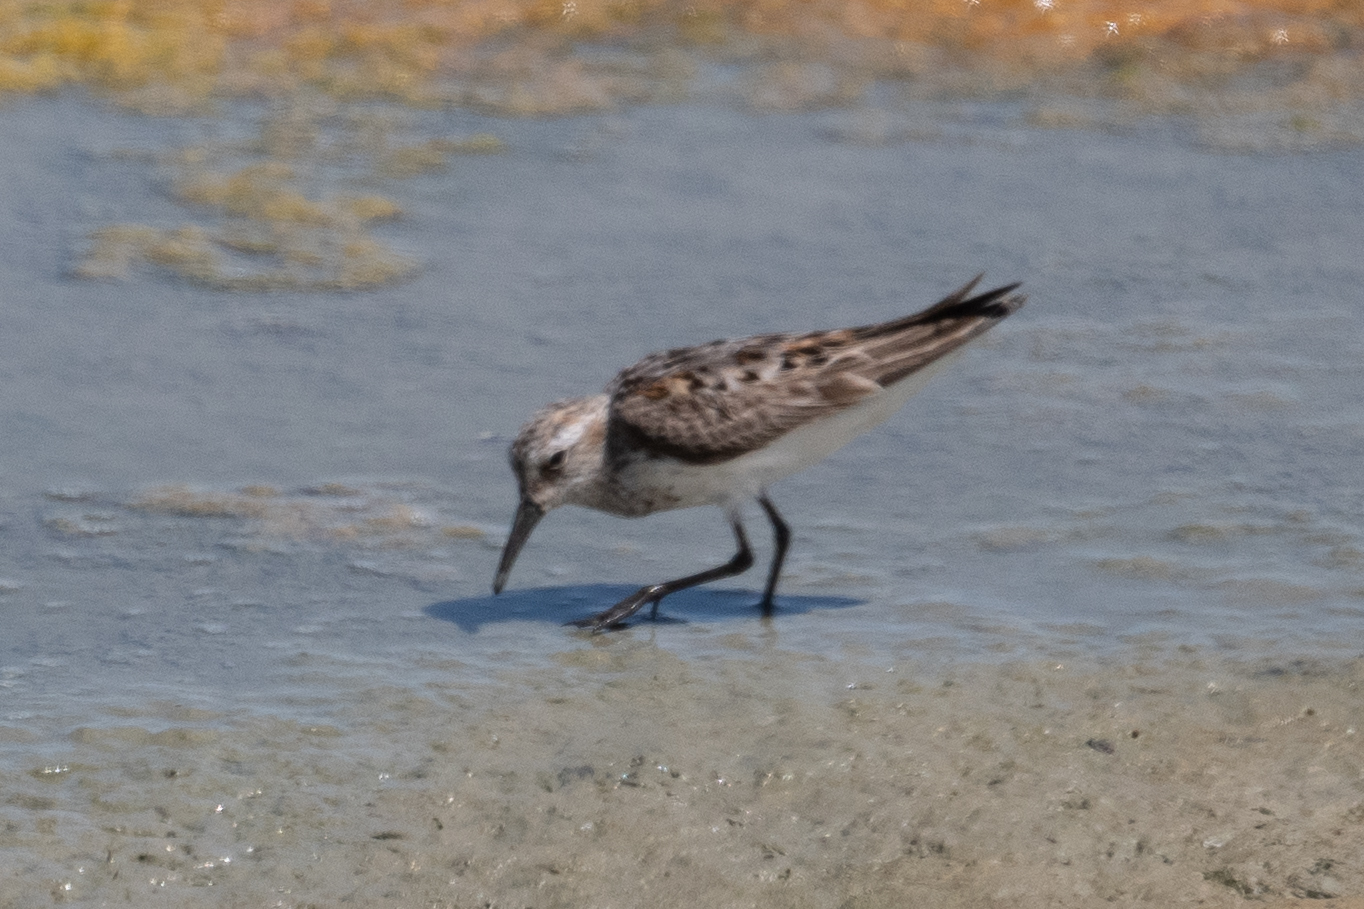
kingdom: Animalia
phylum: Chordata
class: Aves
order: Charadriiformes
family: Scolopacidae
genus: Calidris
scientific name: Calidris mauri
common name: Western sandpiper
